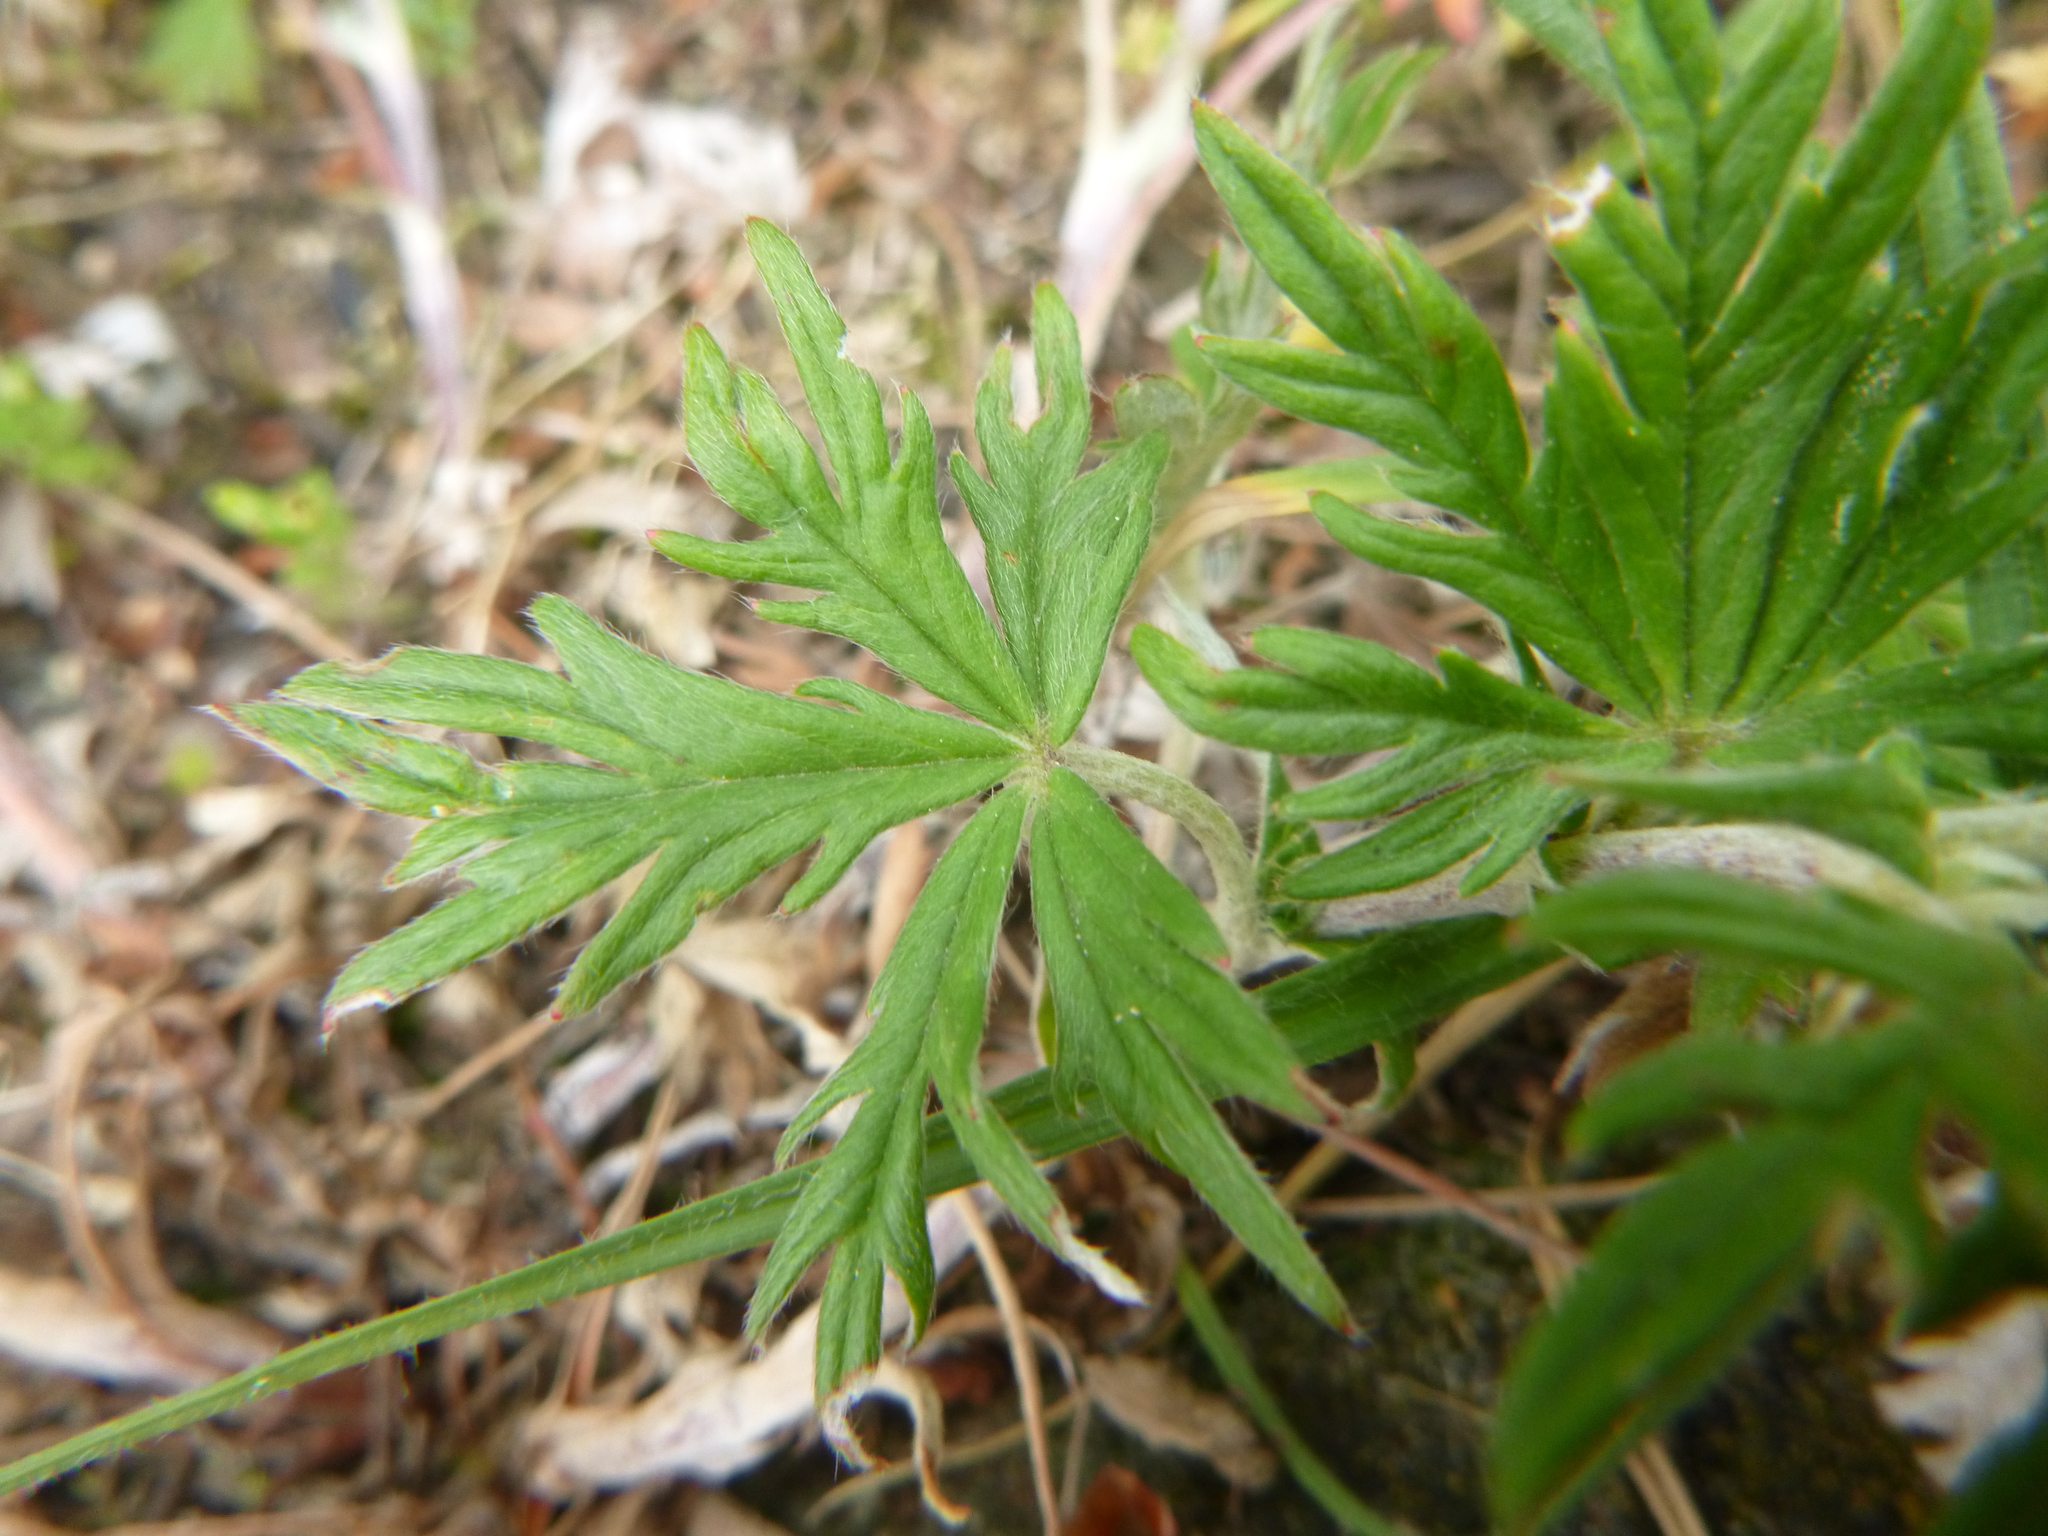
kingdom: Plantae
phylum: Tracheophyta
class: Magnoliopsida
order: Rosales
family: Rosaceae
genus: Potentilla
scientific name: Potentilla argentea
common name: Hoary cinquefoil
